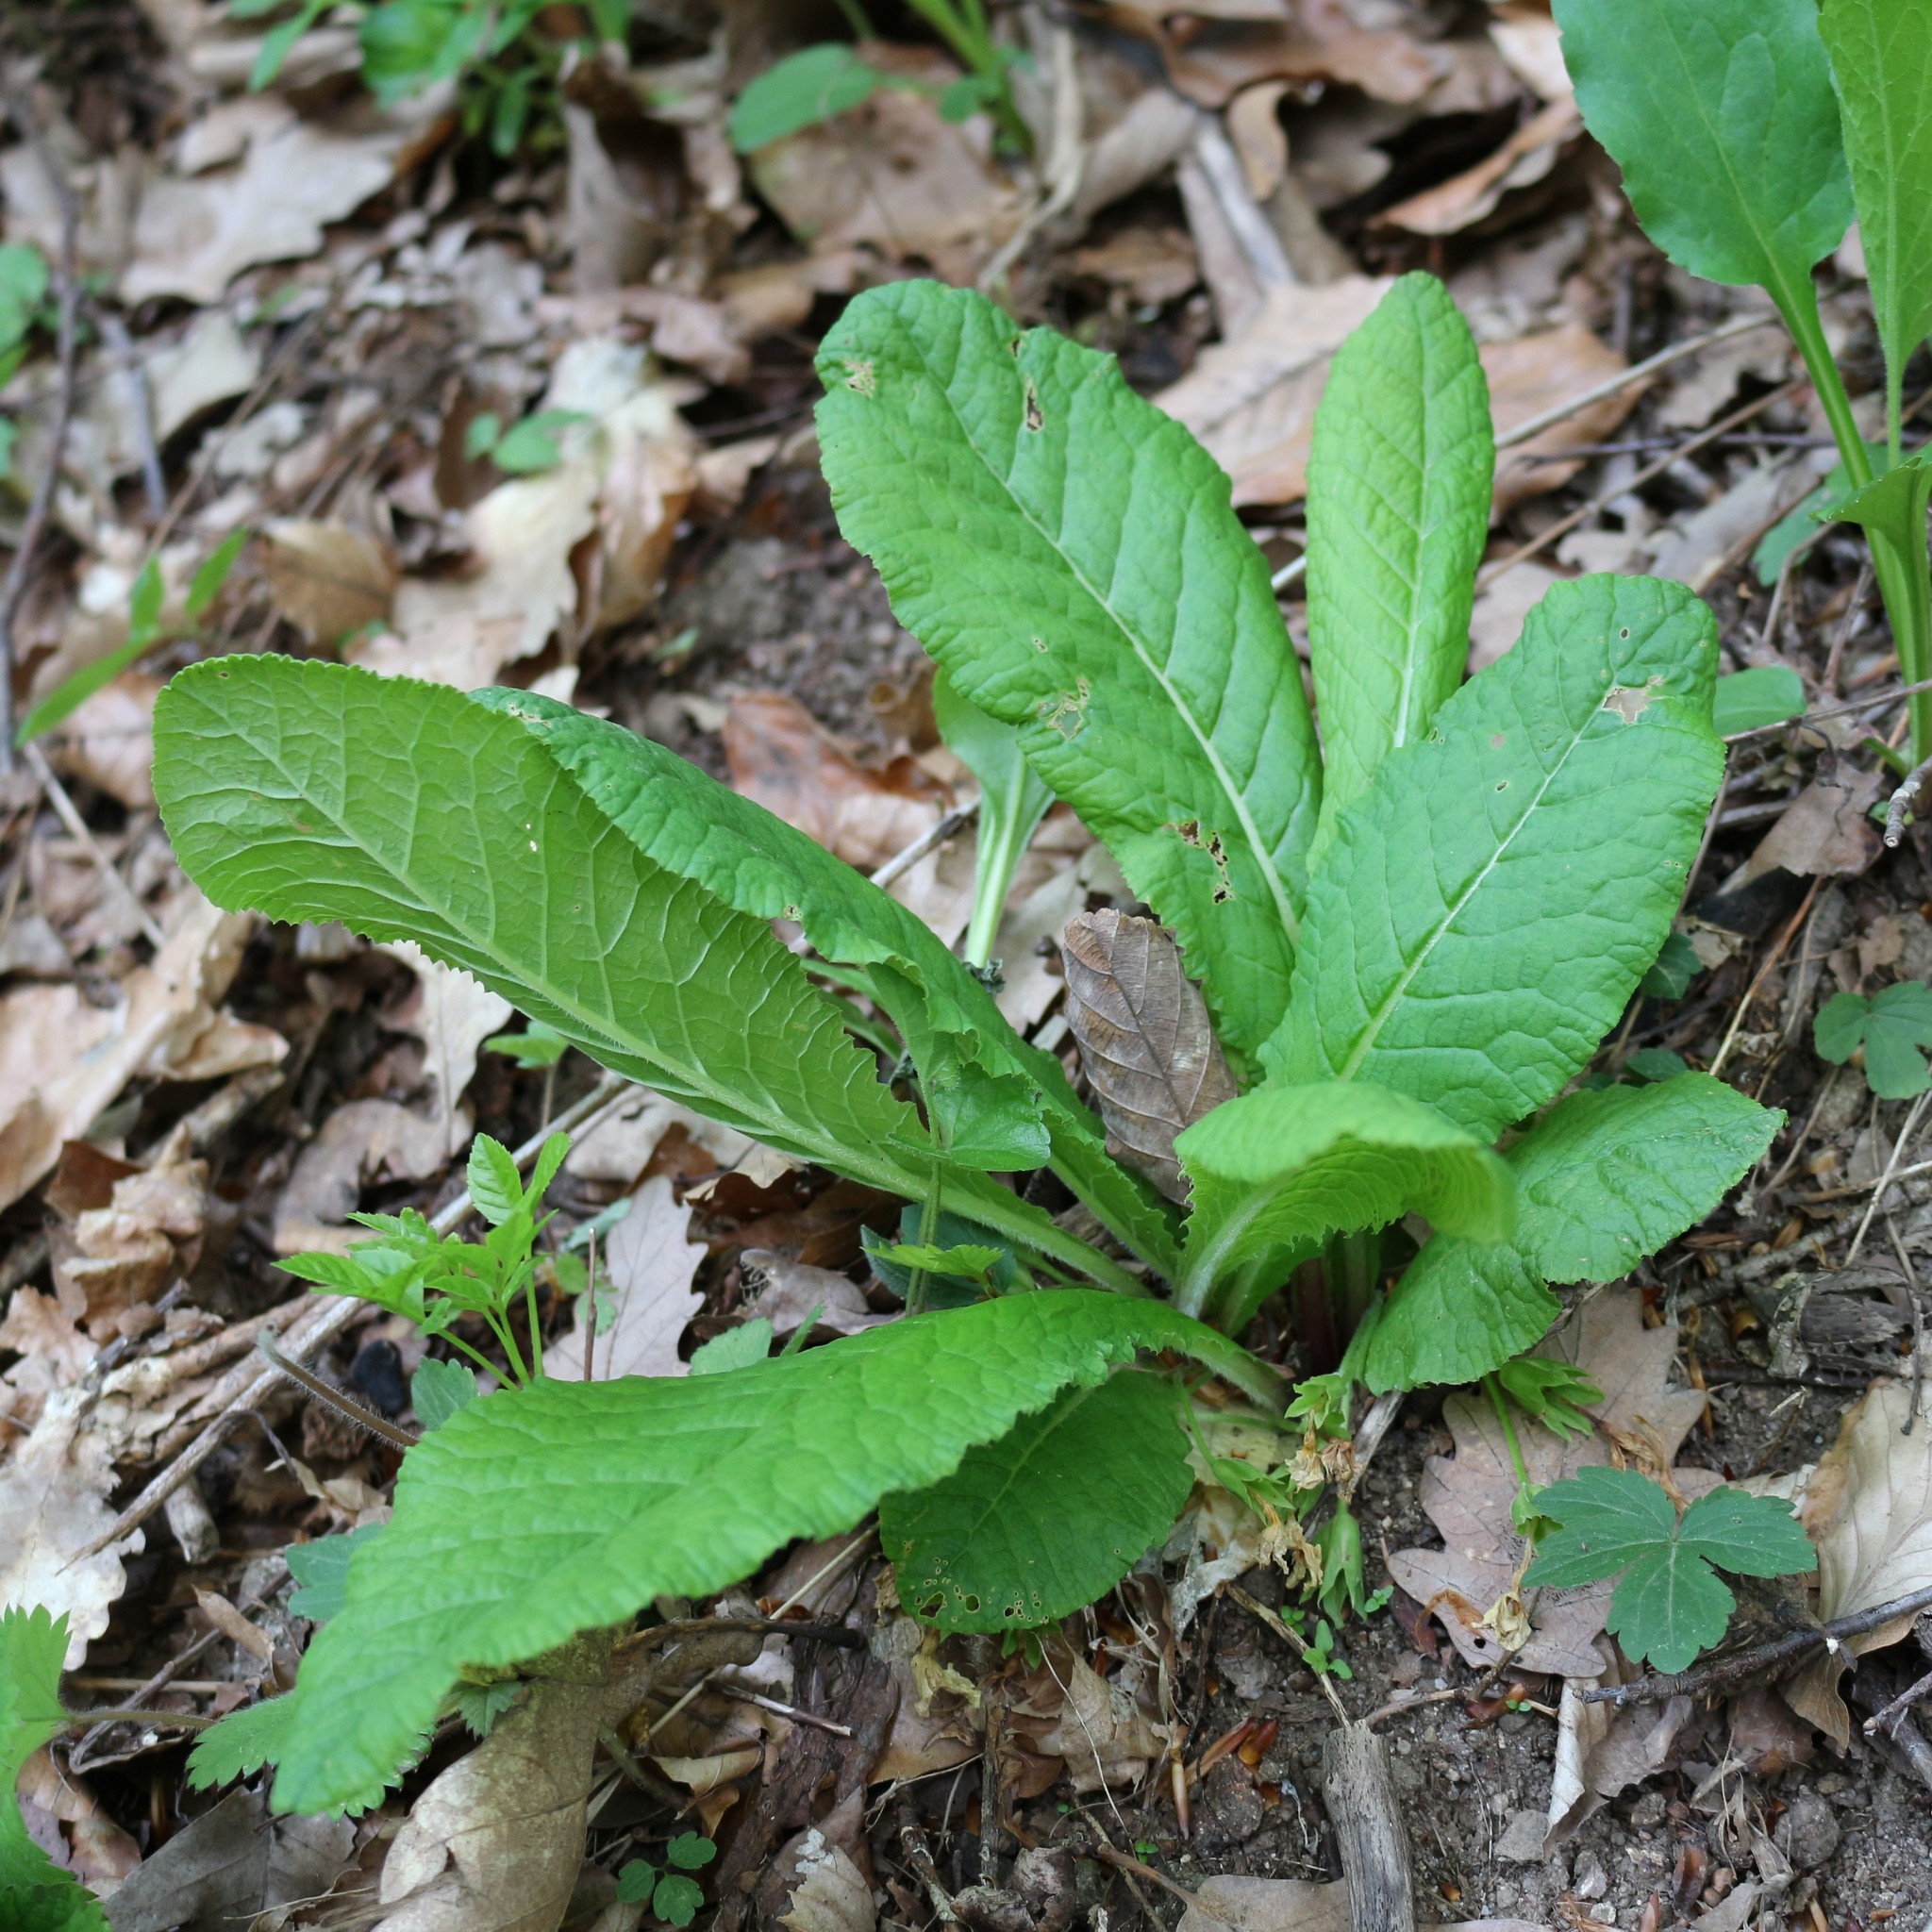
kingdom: Plantae
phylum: Tracheophyta
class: Magnoliopsida
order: Ericales
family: Primulaceae
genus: Primula
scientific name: Primula vulgaris
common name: Primrose
